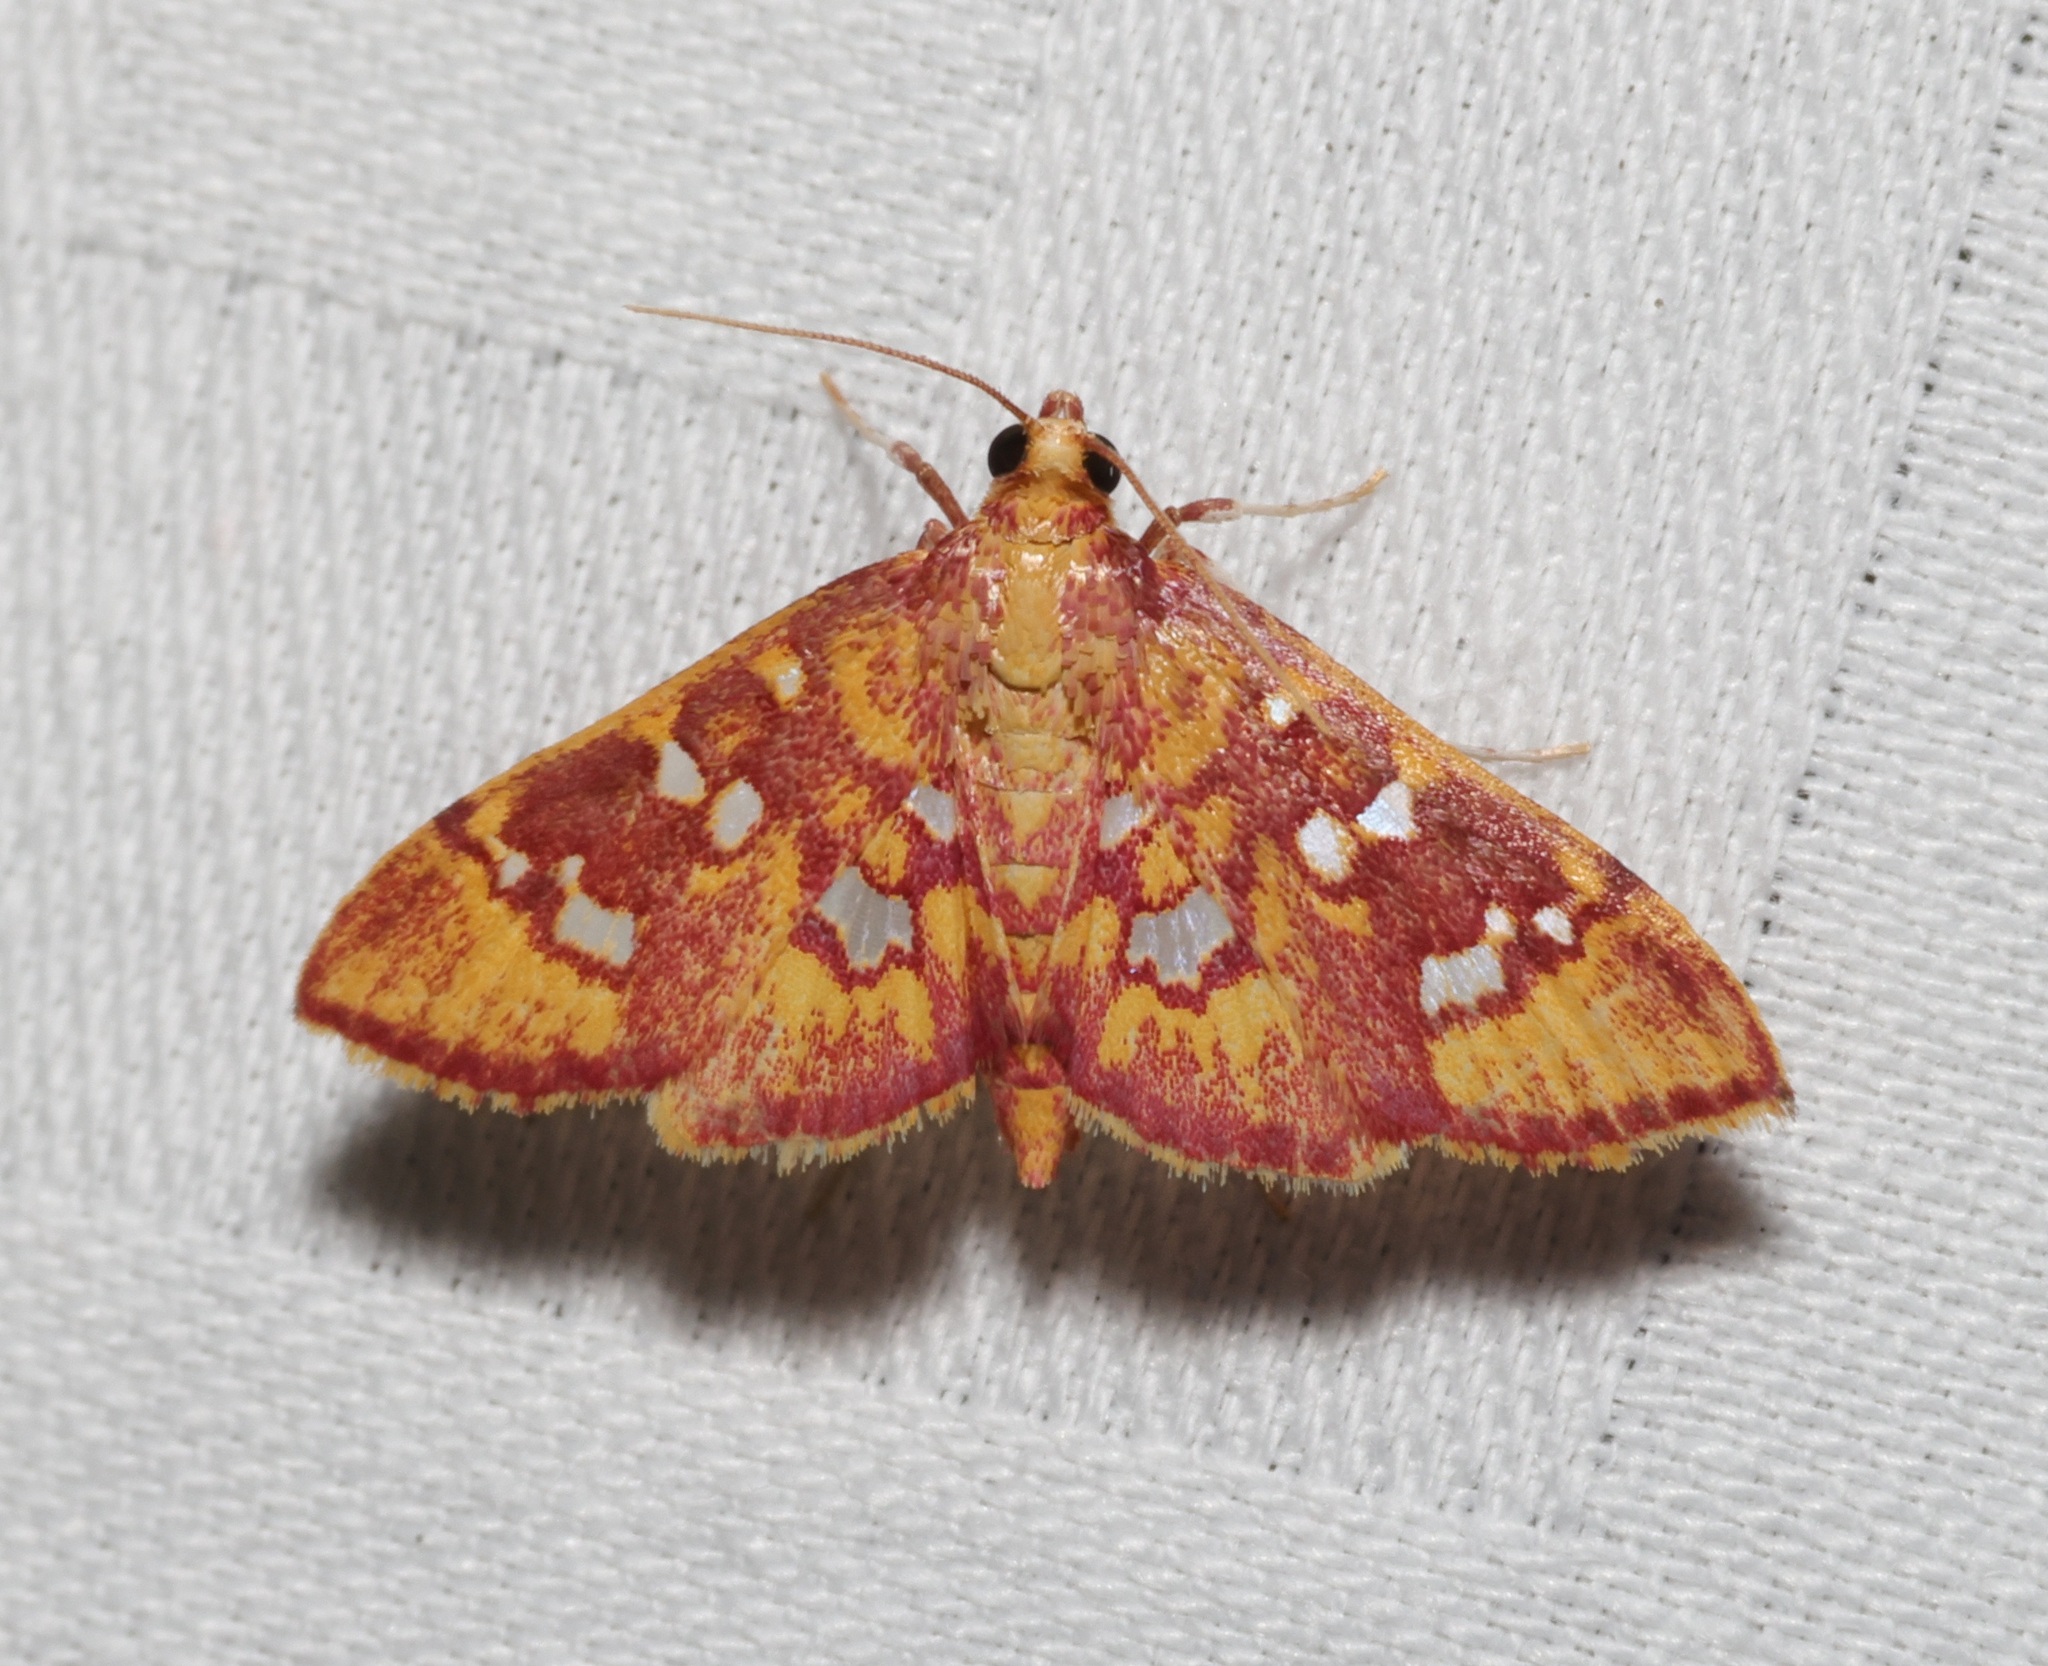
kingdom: Animalia
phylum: Arthropoda
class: Insecta
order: Lepidoptera
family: Crambidae
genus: Ischnurges
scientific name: Ischnurges gratiosalis
